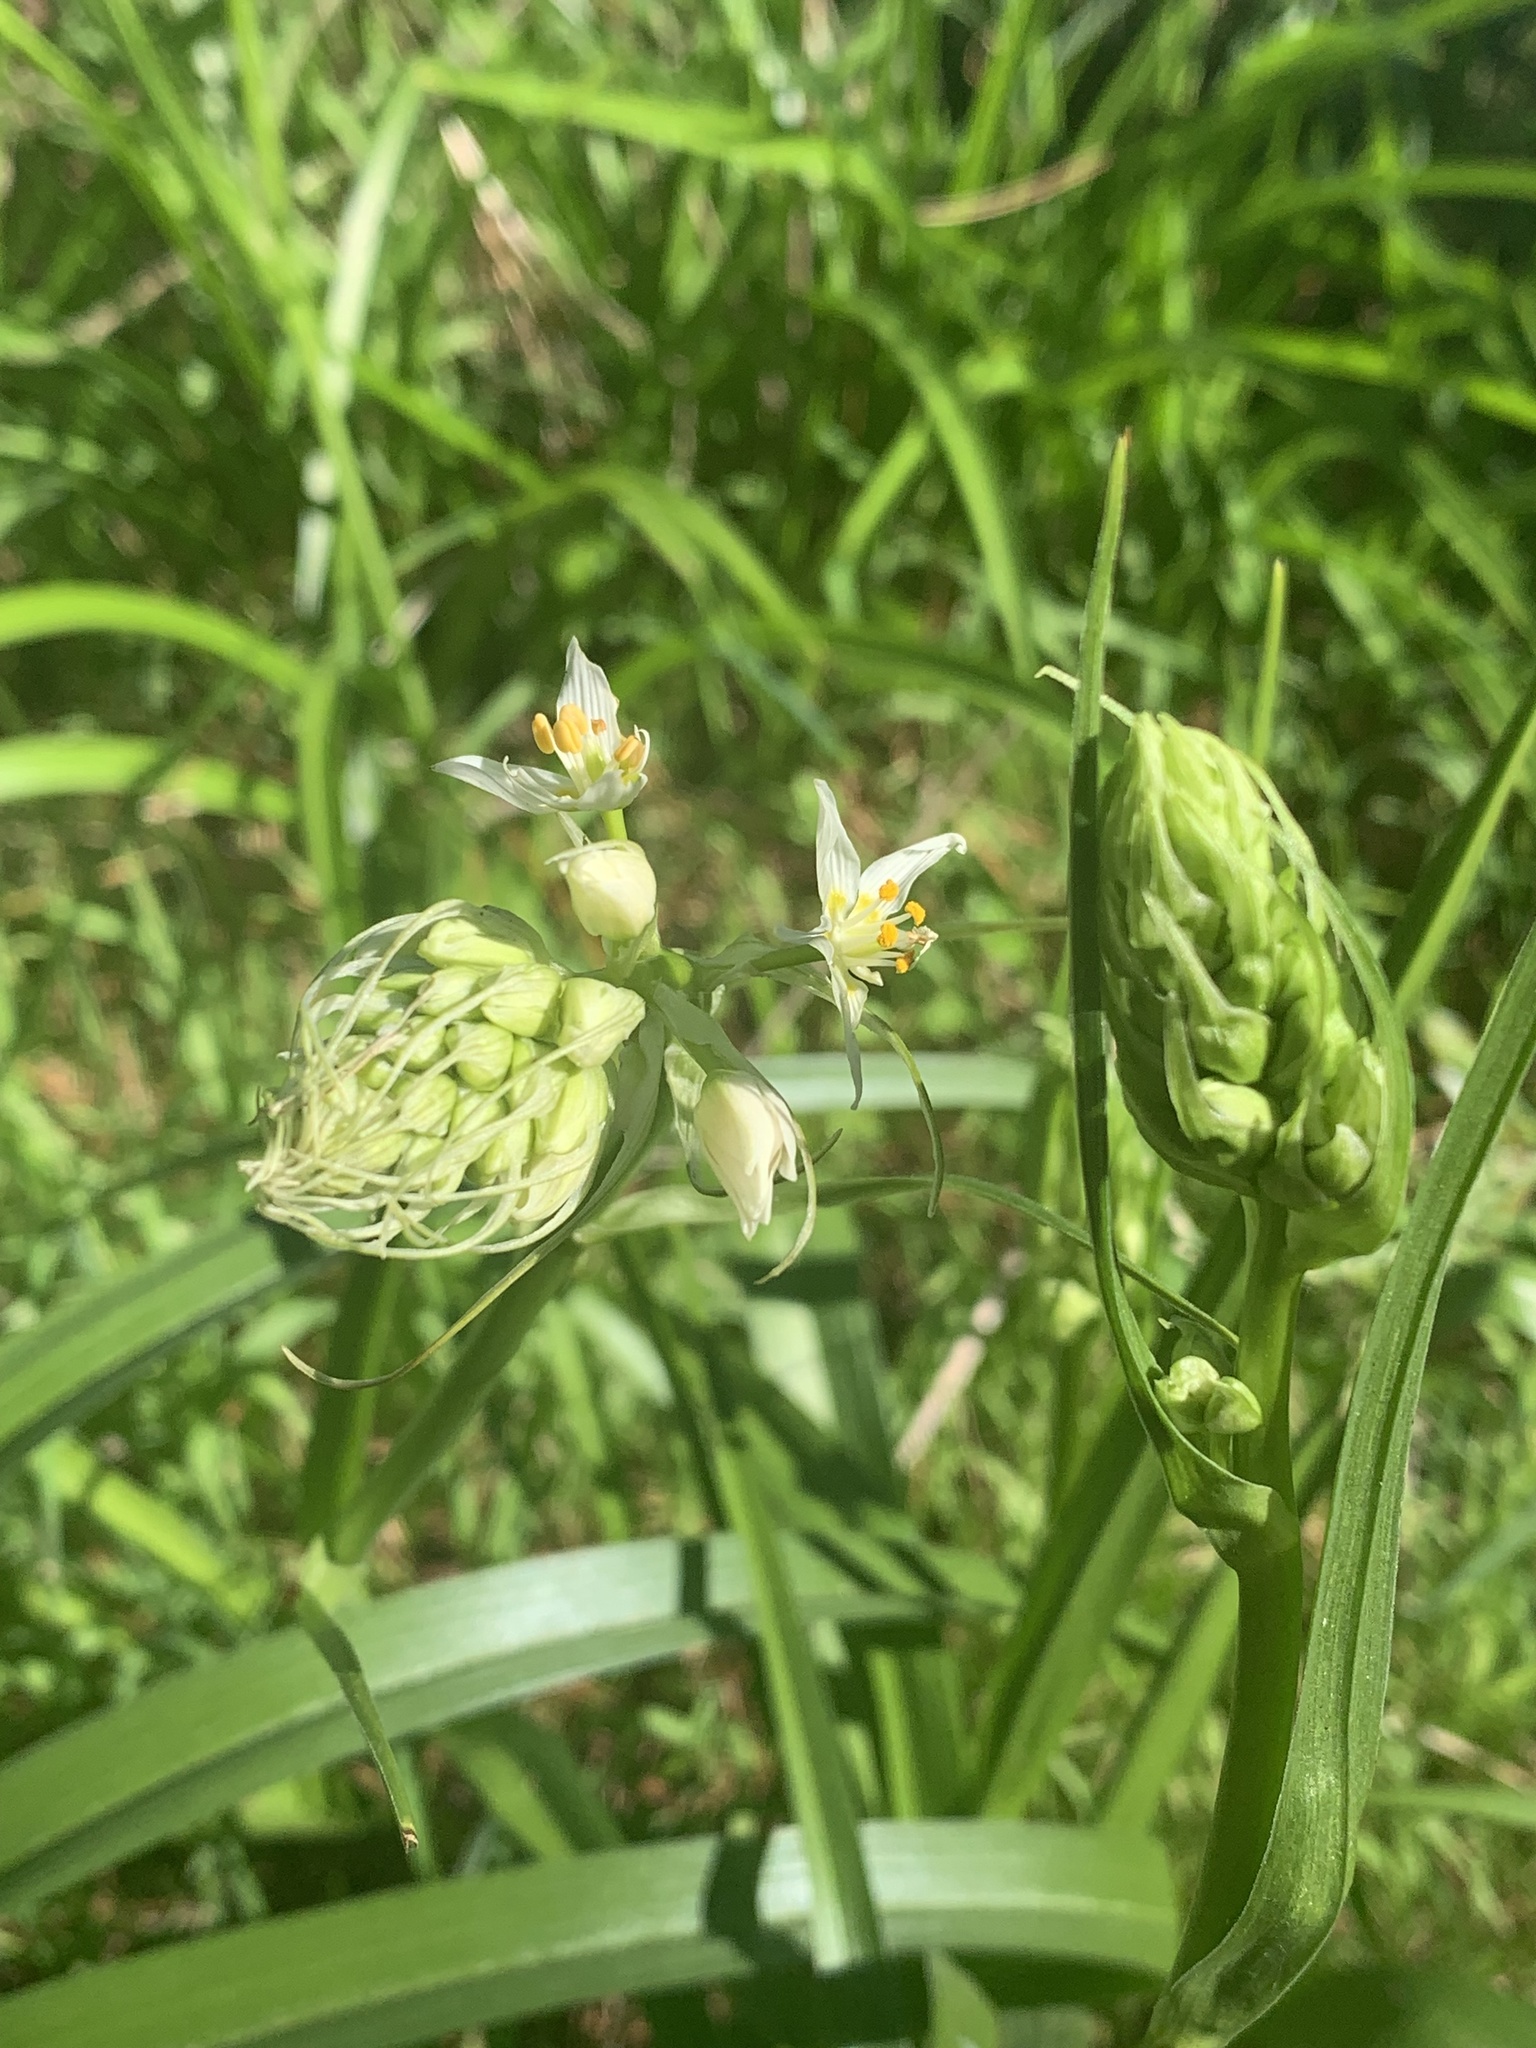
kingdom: Plantae
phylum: Tracheophyta
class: Liliopsida
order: Liliales
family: Melanthiaceae
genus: Toxicoscordion
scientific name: Toxicoscordion fremontii
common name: Fremont's death camas
